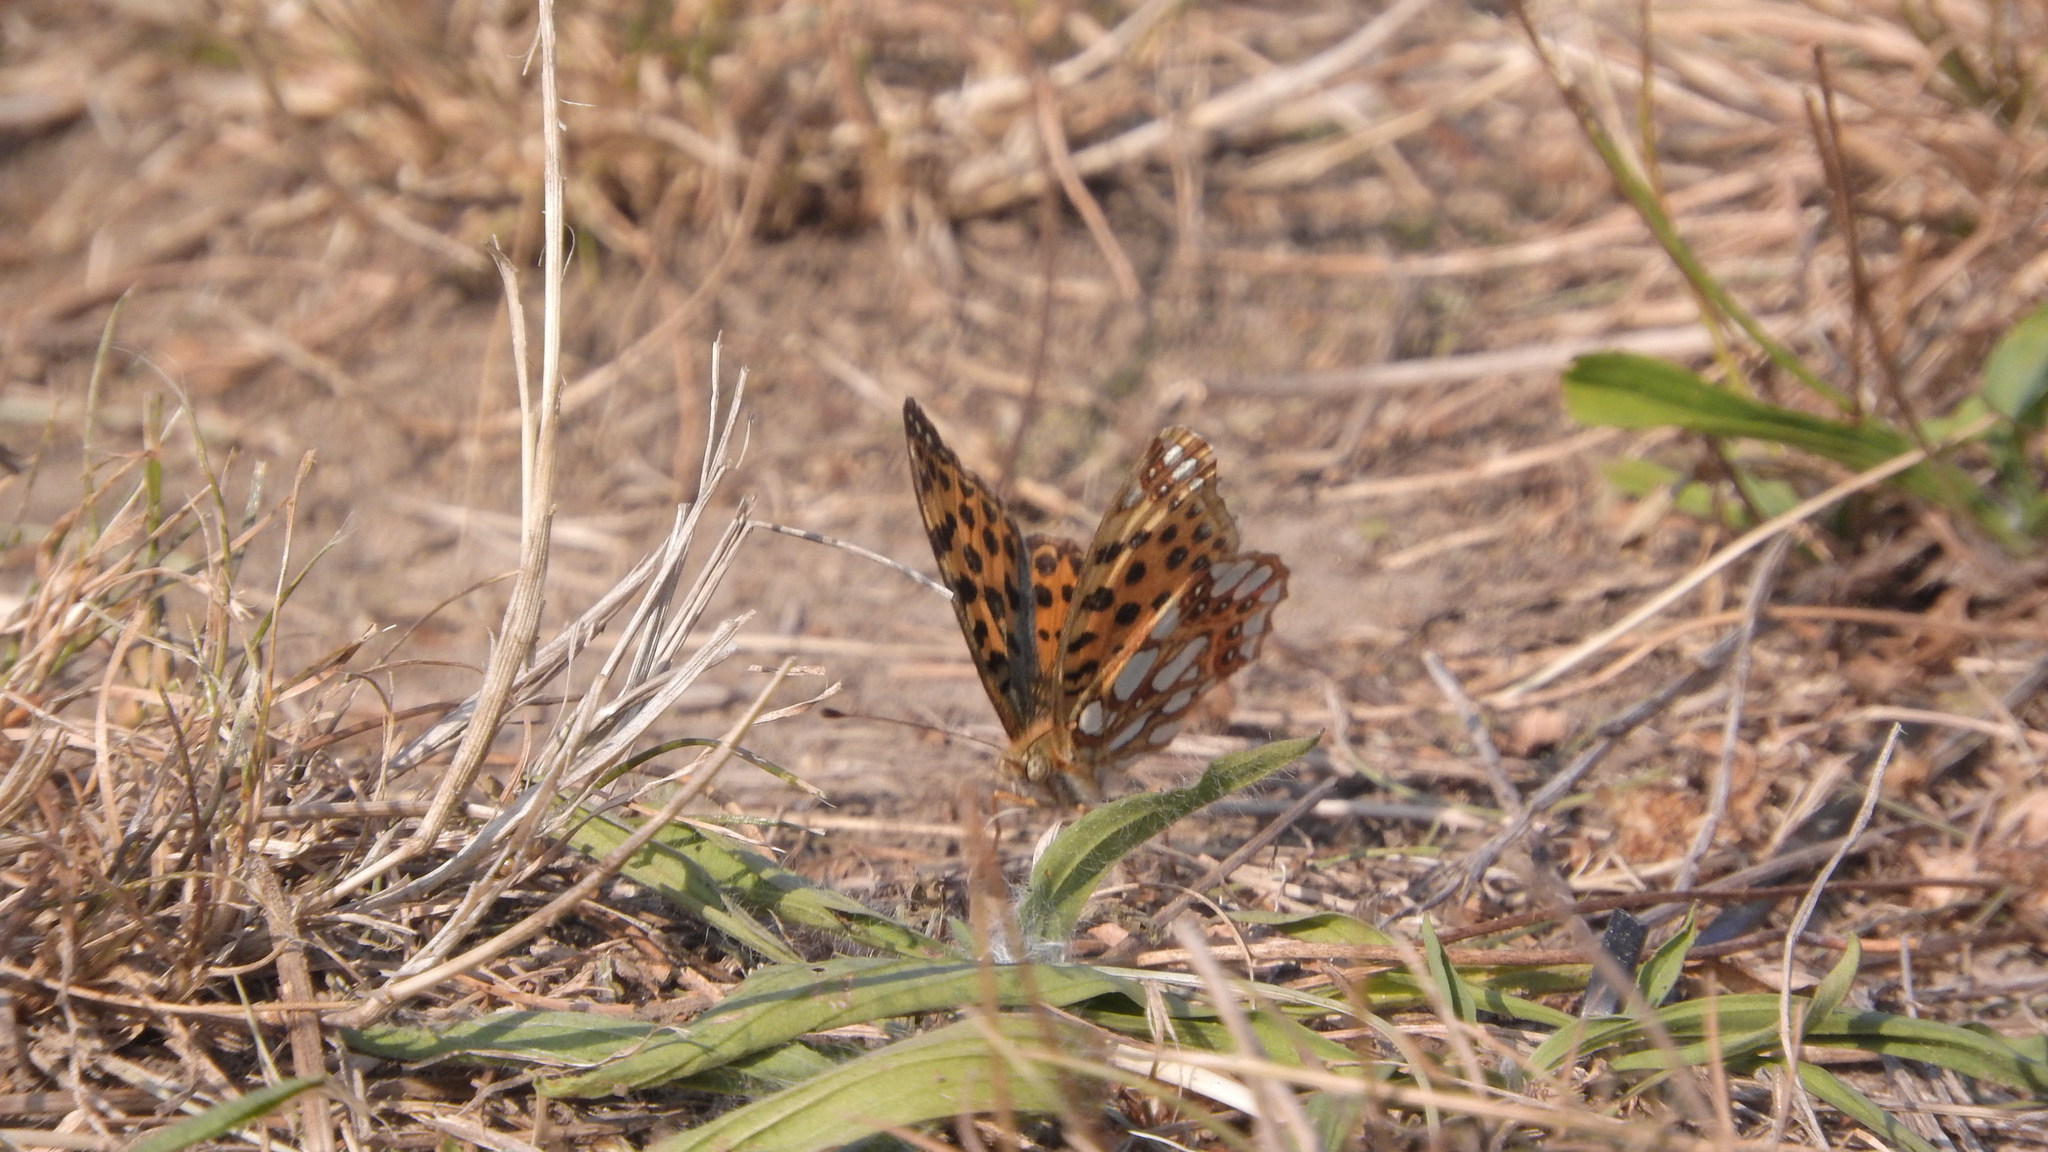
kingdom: Animalia
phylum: Arthropoda
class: Insecta
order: Lepidoptera
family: Nymphalidae
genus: Issoria
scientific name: Issoria lathonia
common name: Queen of spain fritillary
